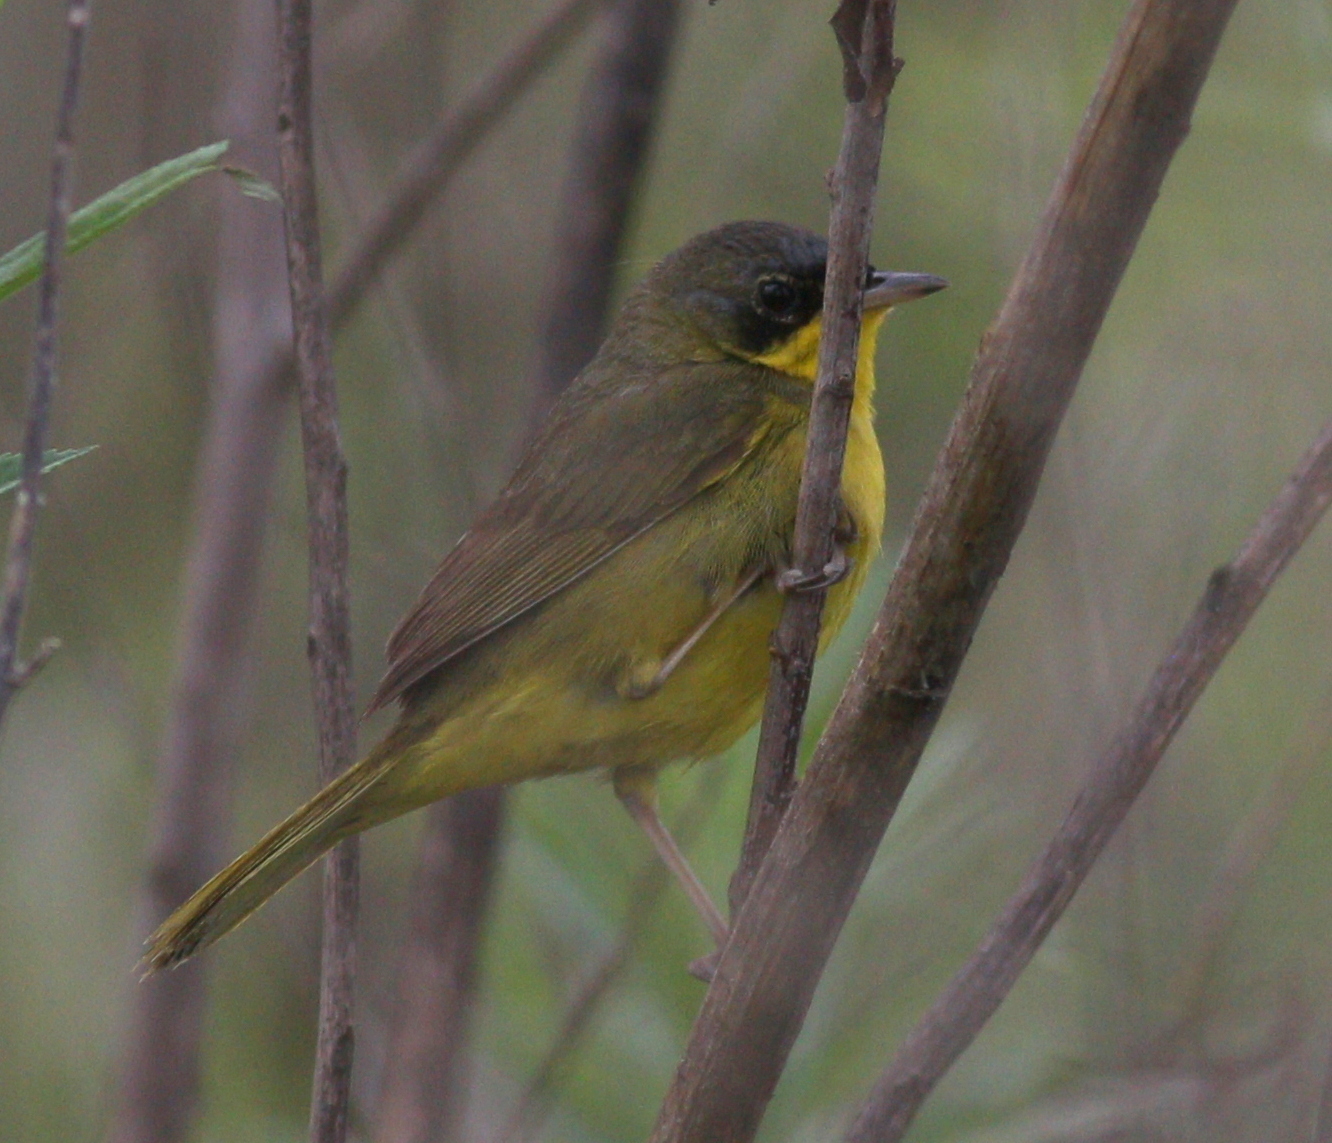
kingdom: Animalia
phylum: Chordata
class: Aves
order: Passeriformes
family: Parulidae
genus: Geothlypis
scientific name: Geothlypis velata
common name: Southern yellowthroat
